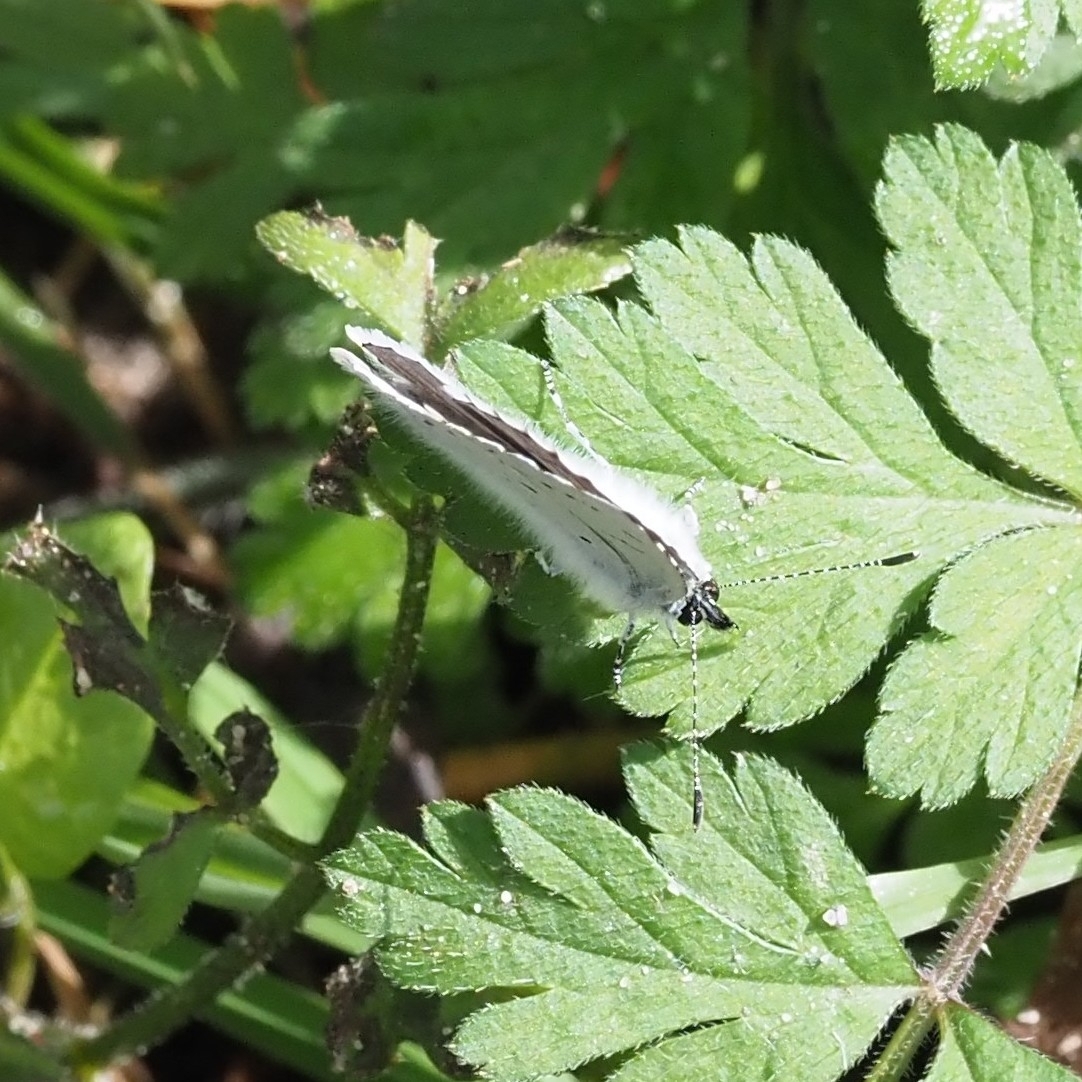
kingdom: Animalia
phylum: Arthropoda
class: Insecta
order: Lepidoptera
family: Lycaenidae
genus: Celastrina
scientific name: Celastrina argiolus
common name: Holly blue
